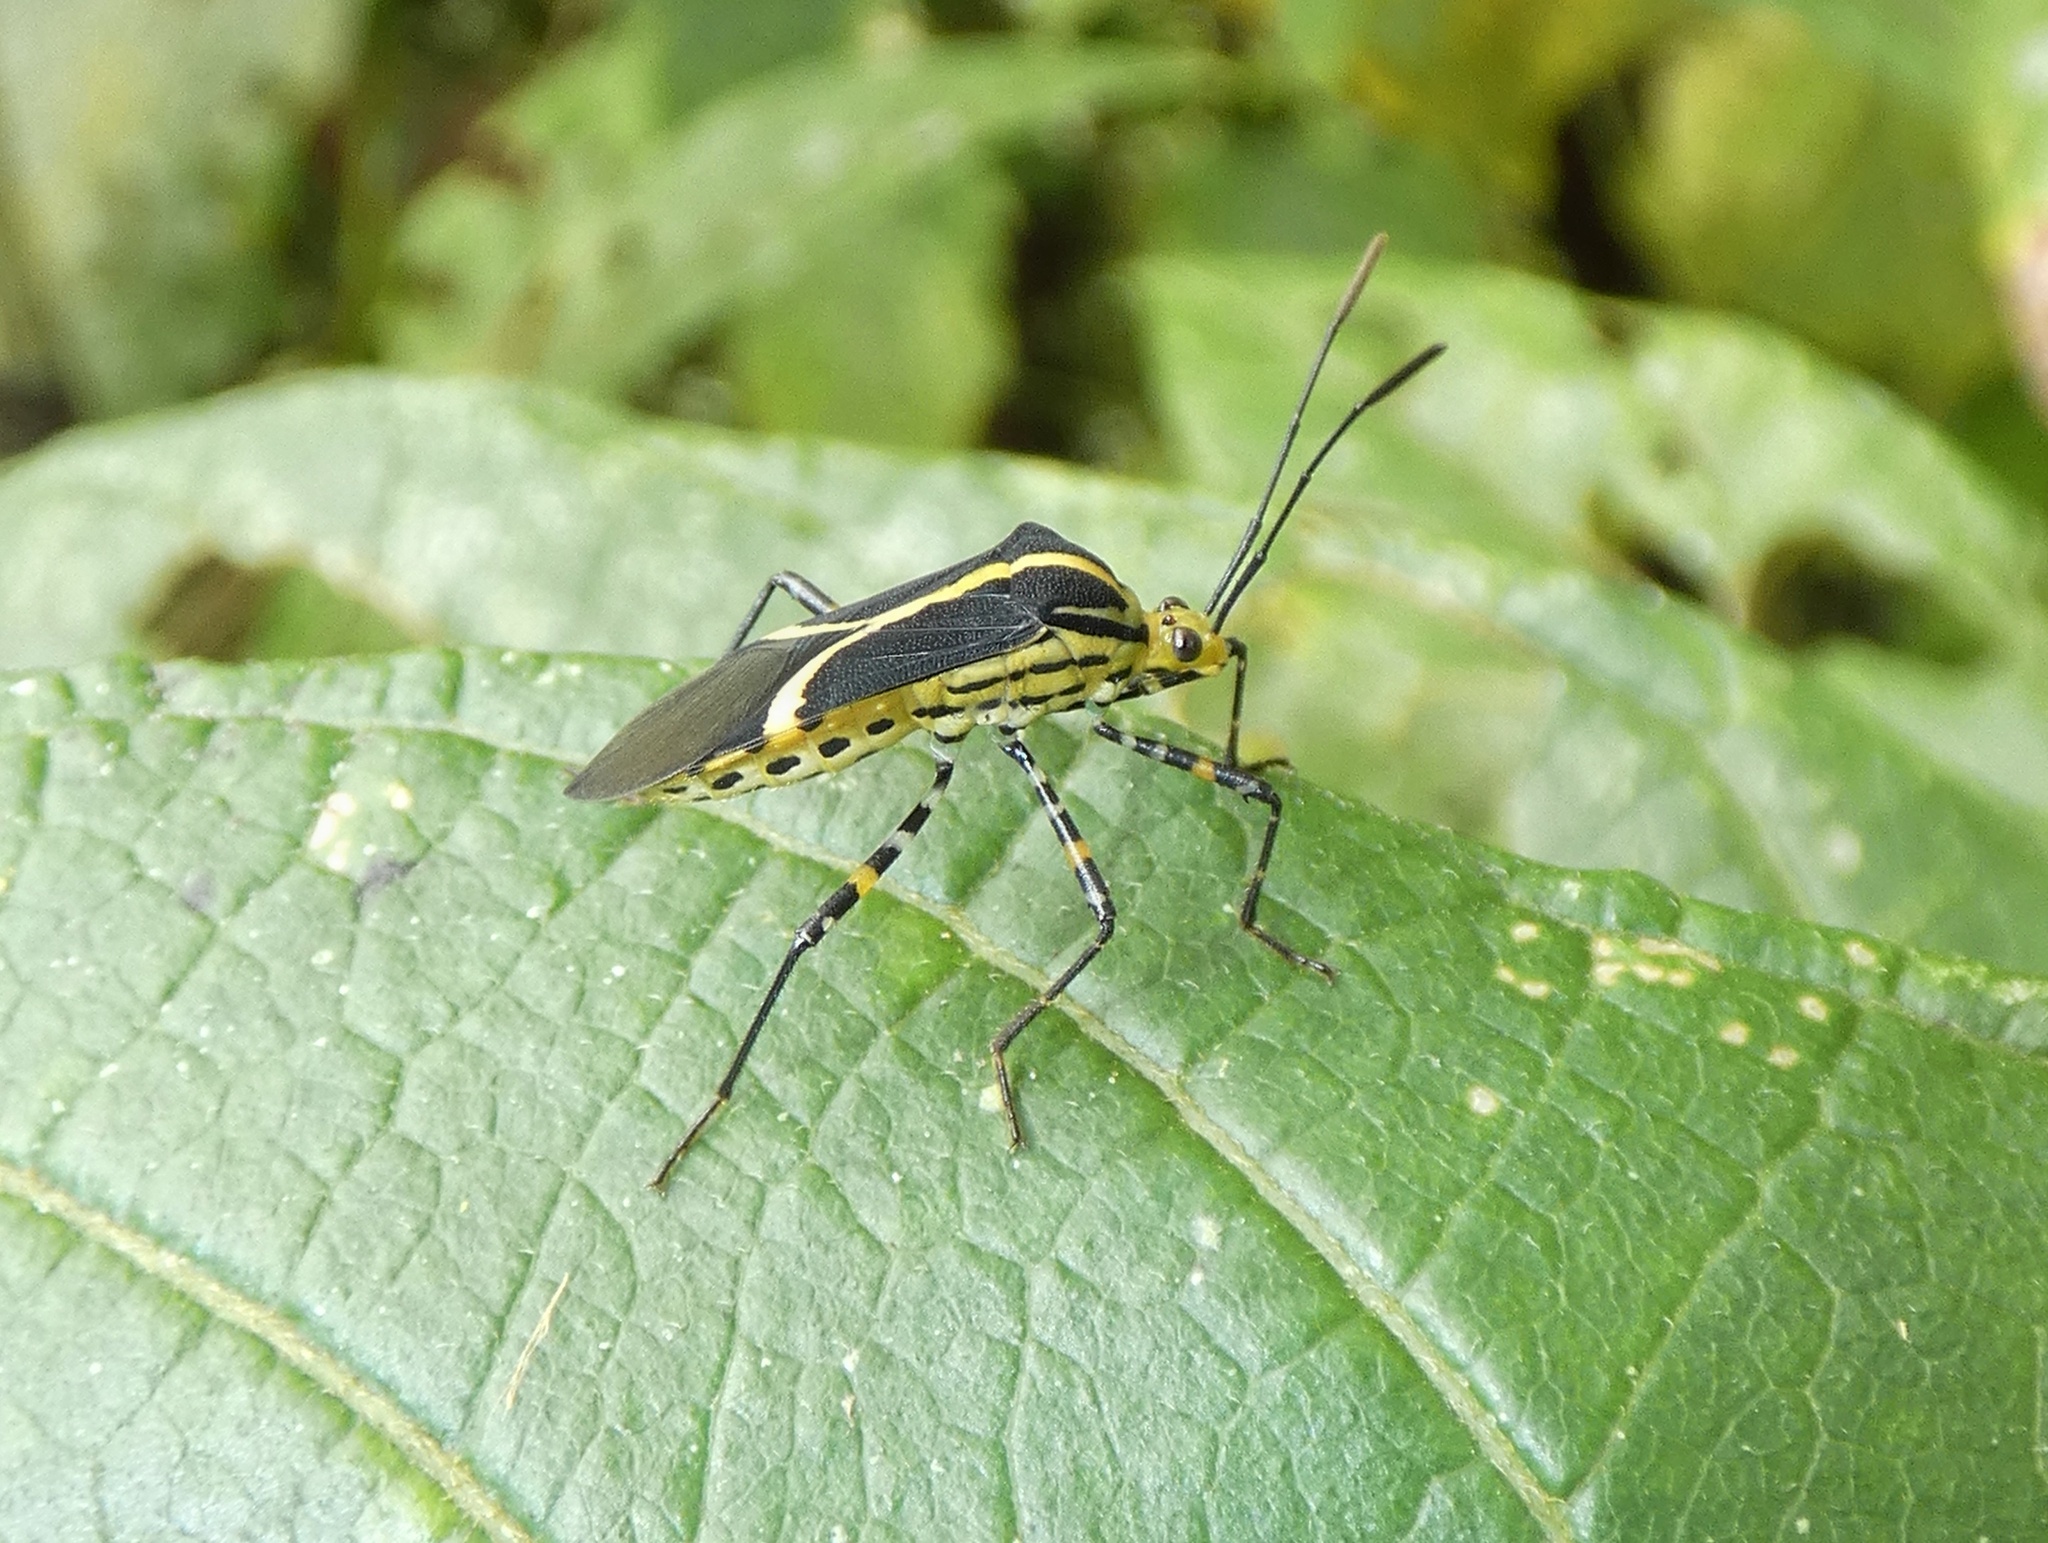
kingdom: Animalia
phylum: Arthropoda
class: Insecta
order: Hemiptera
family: Coreidae
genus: Hypselonotus
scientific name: Hypselonotus linea
